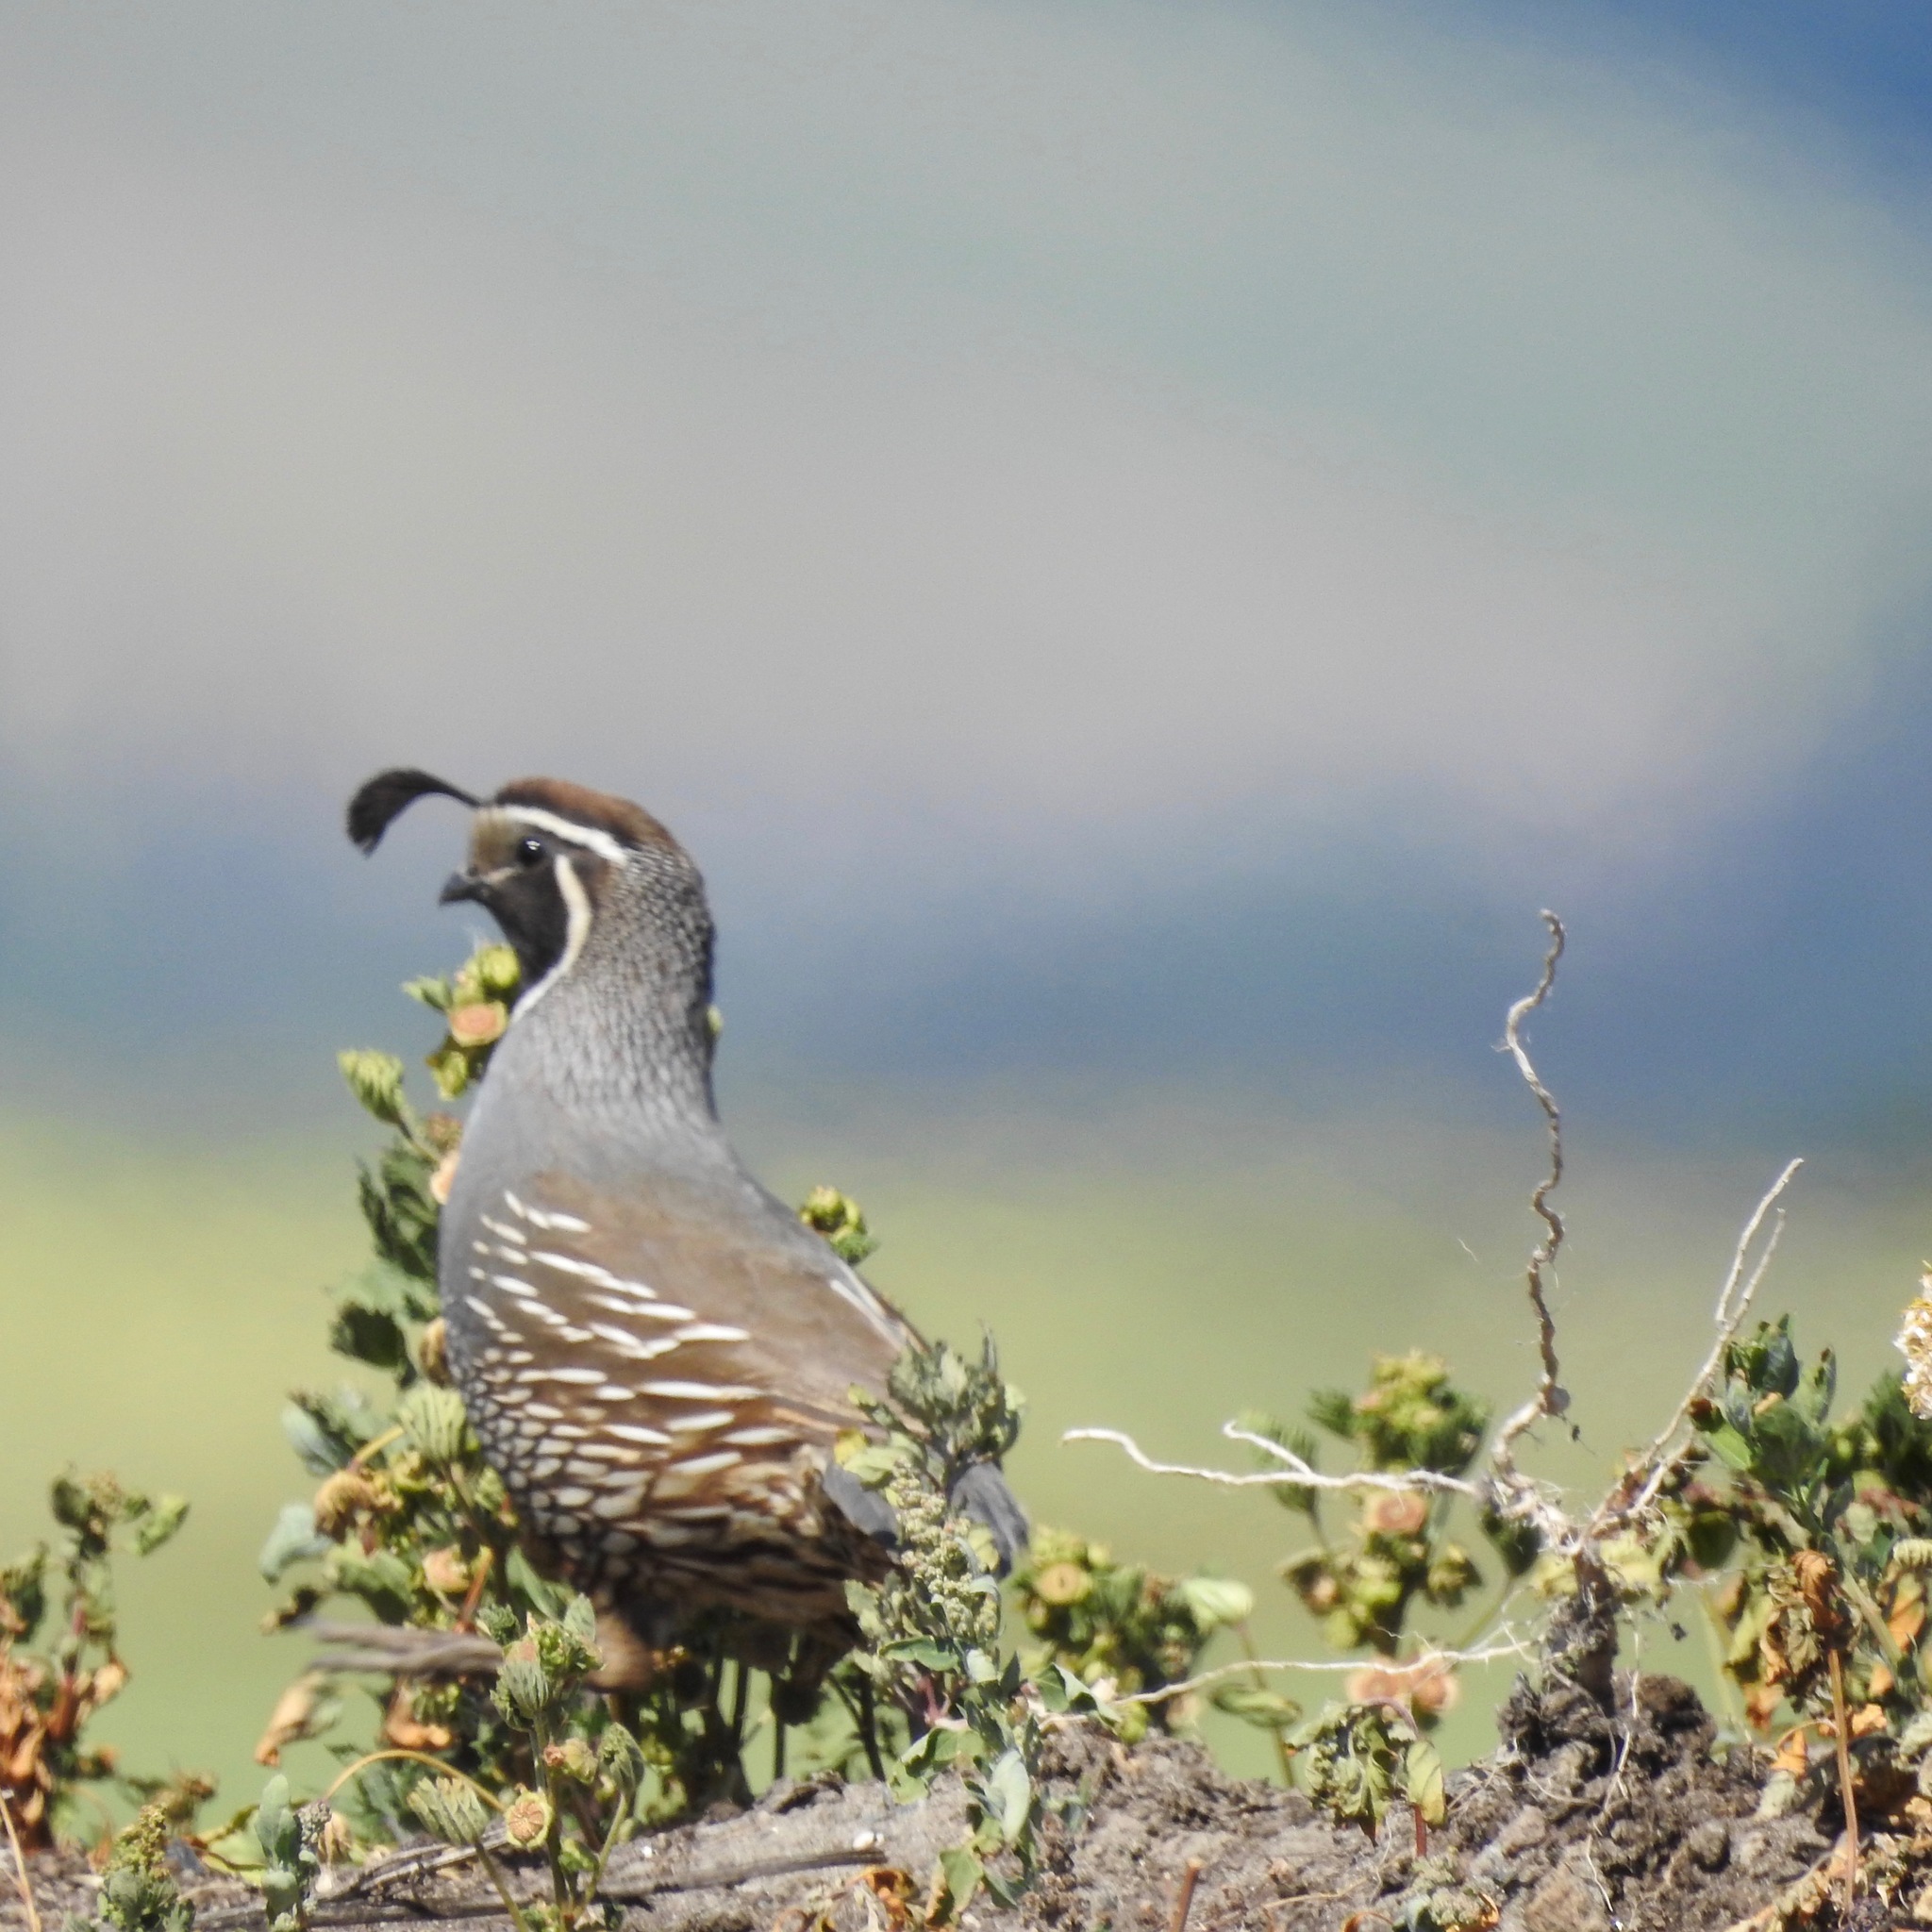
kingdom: Animalia
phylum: Chordata
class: Aves
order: Galliformes
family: Odontophoridae
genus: Callipepla
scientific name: Callipepla californica
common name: California quail
